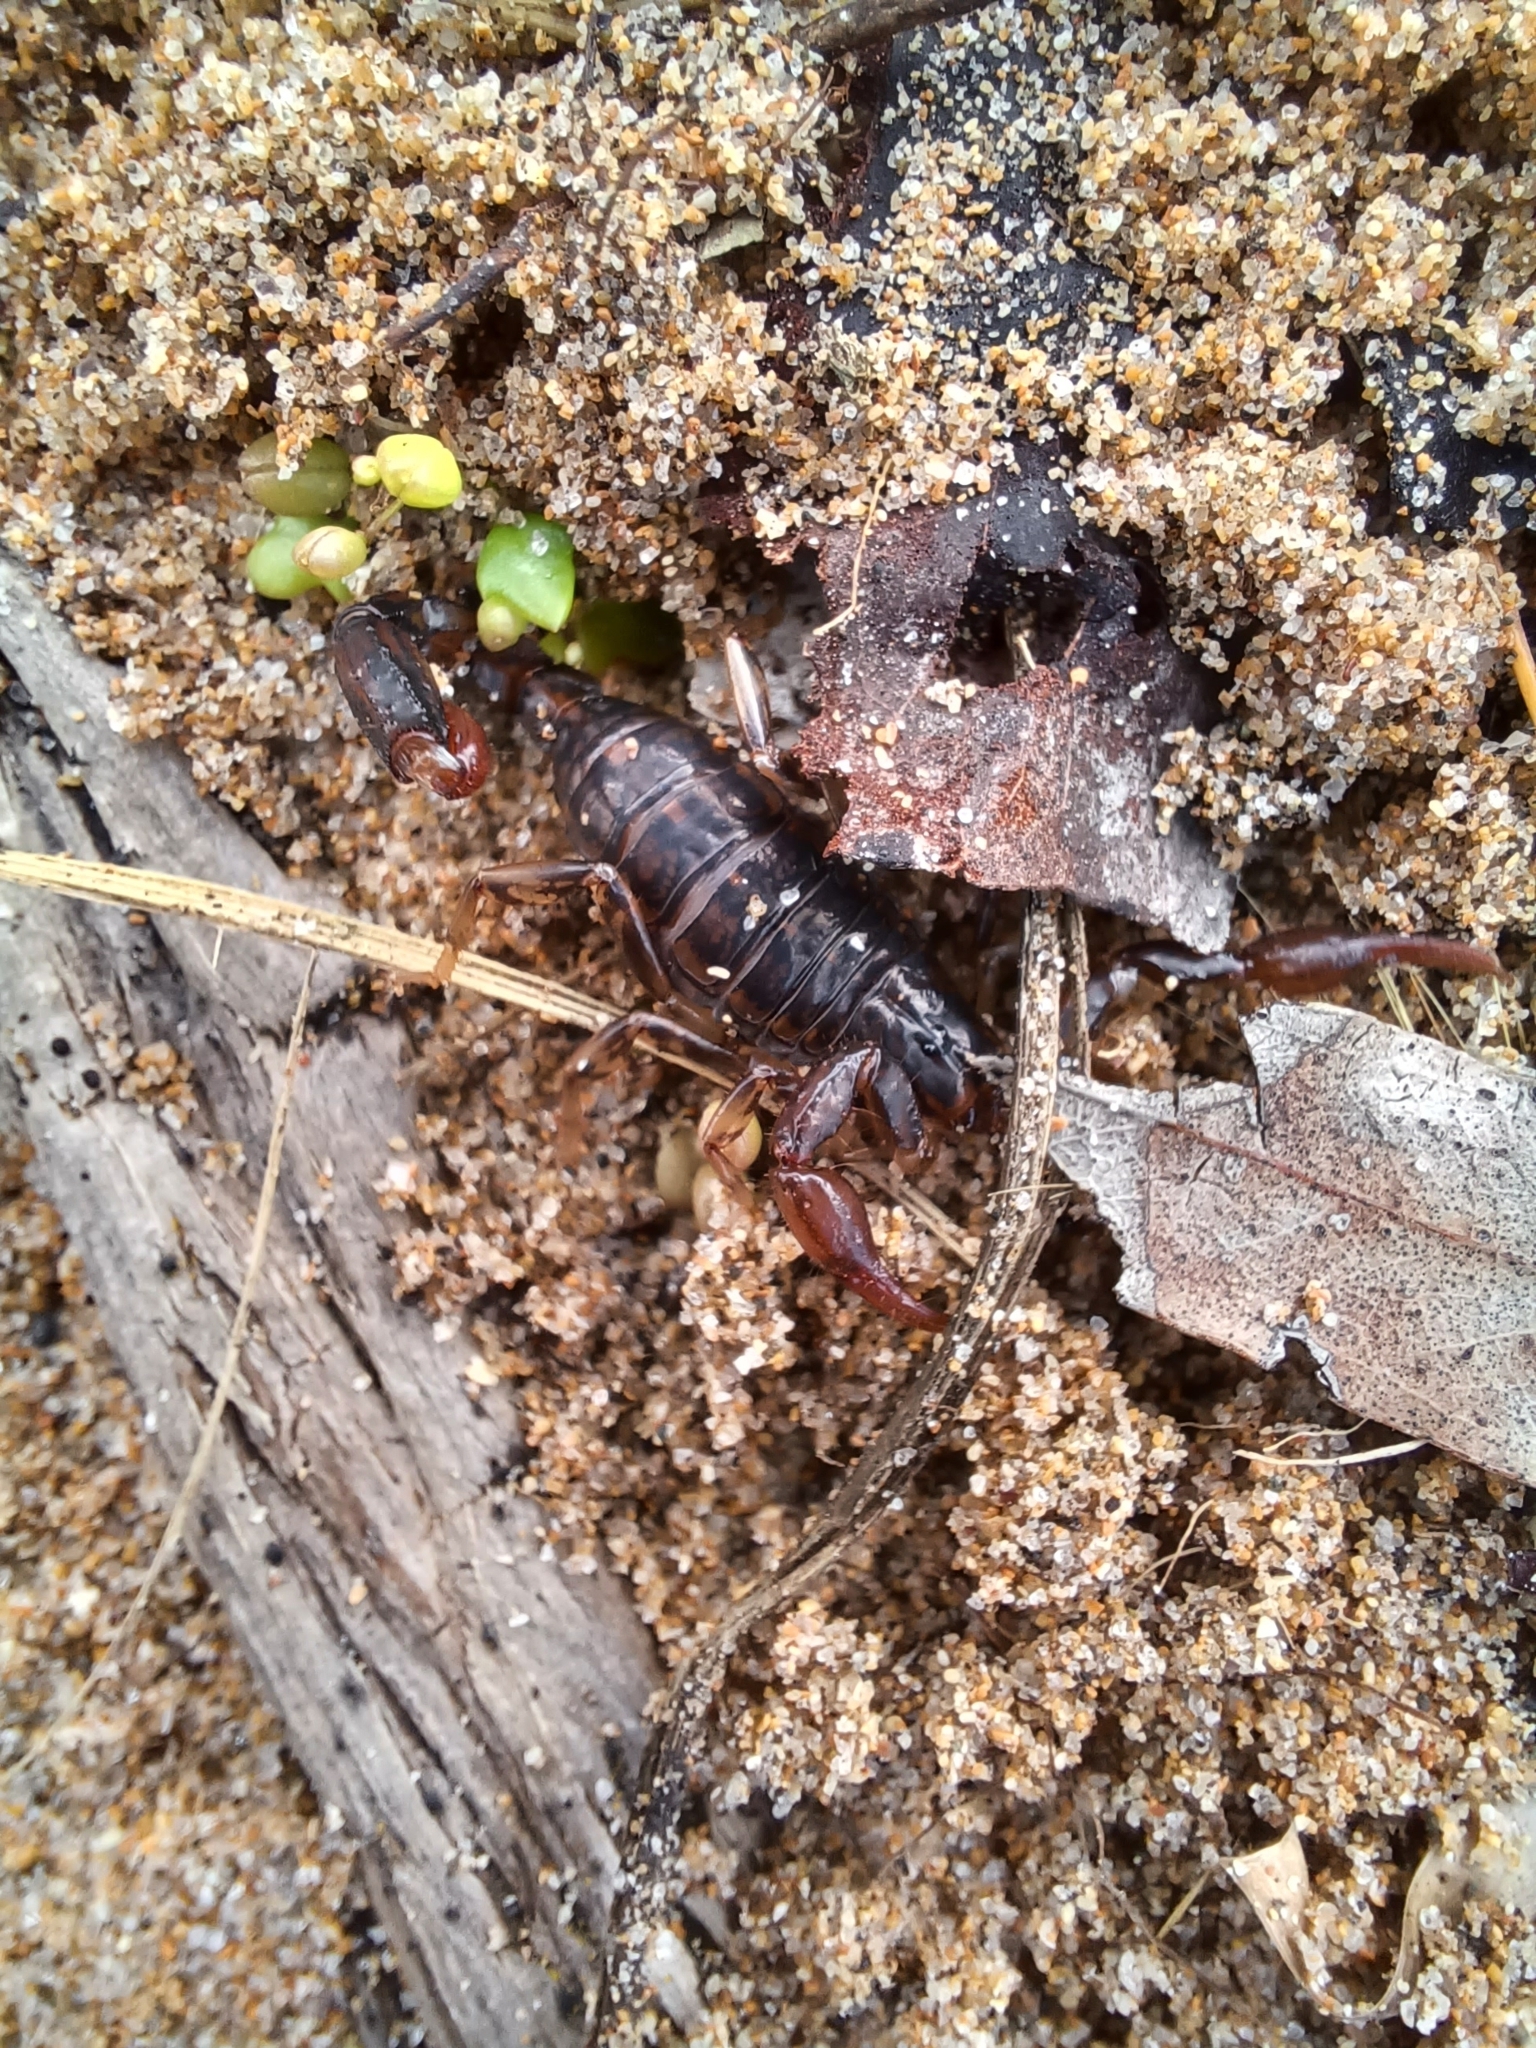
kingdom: Animalia
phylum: Arthropoda
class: Arachnida
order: Scorpiones
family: Bothriuridae
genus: Cercophonius
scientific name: Cercophonius squama
